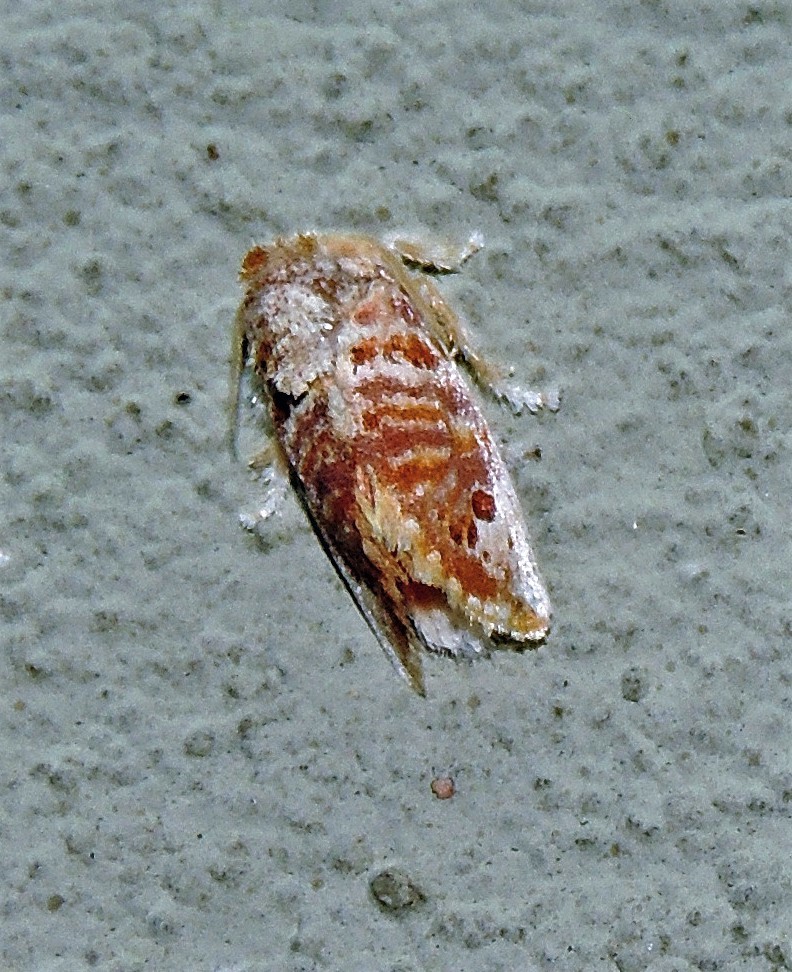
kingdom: Animalia
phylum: Arthropoda
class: Insecta
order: Lepidoptera
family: Limacodidae
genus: Euphobetron
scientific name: Euphobetron moorei
